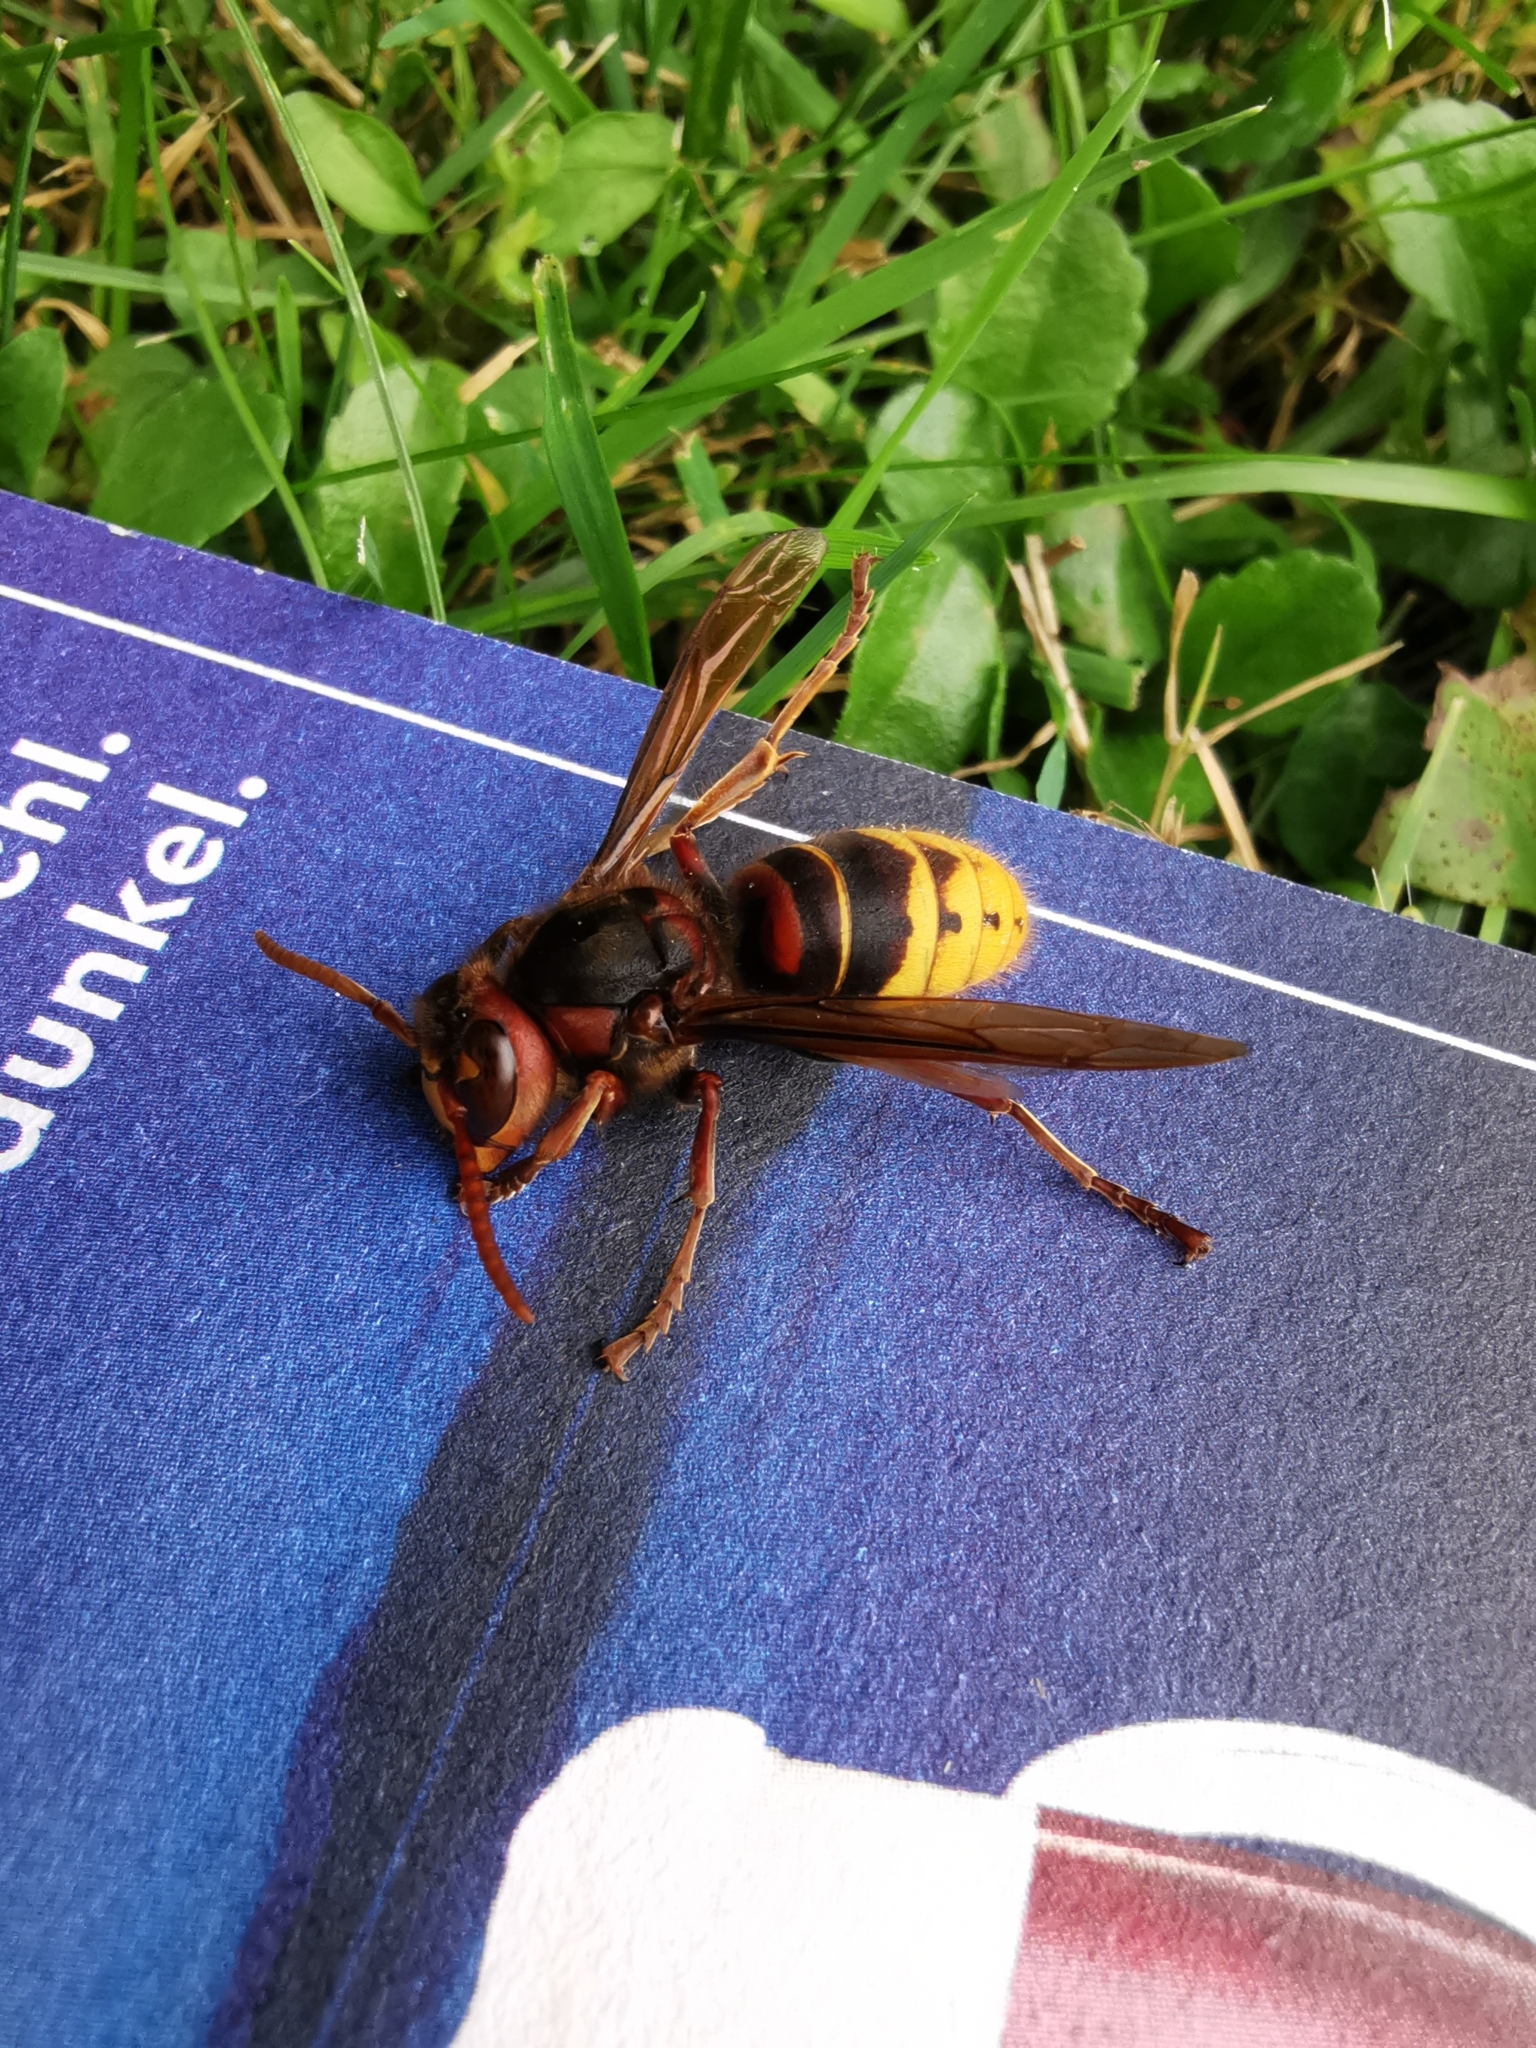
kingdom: Animalia
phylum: Arthropoda
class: Insecta
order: Hymenoptera
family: Vespidae
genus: Vespa
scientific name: Vespa crabro
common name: Hornet
